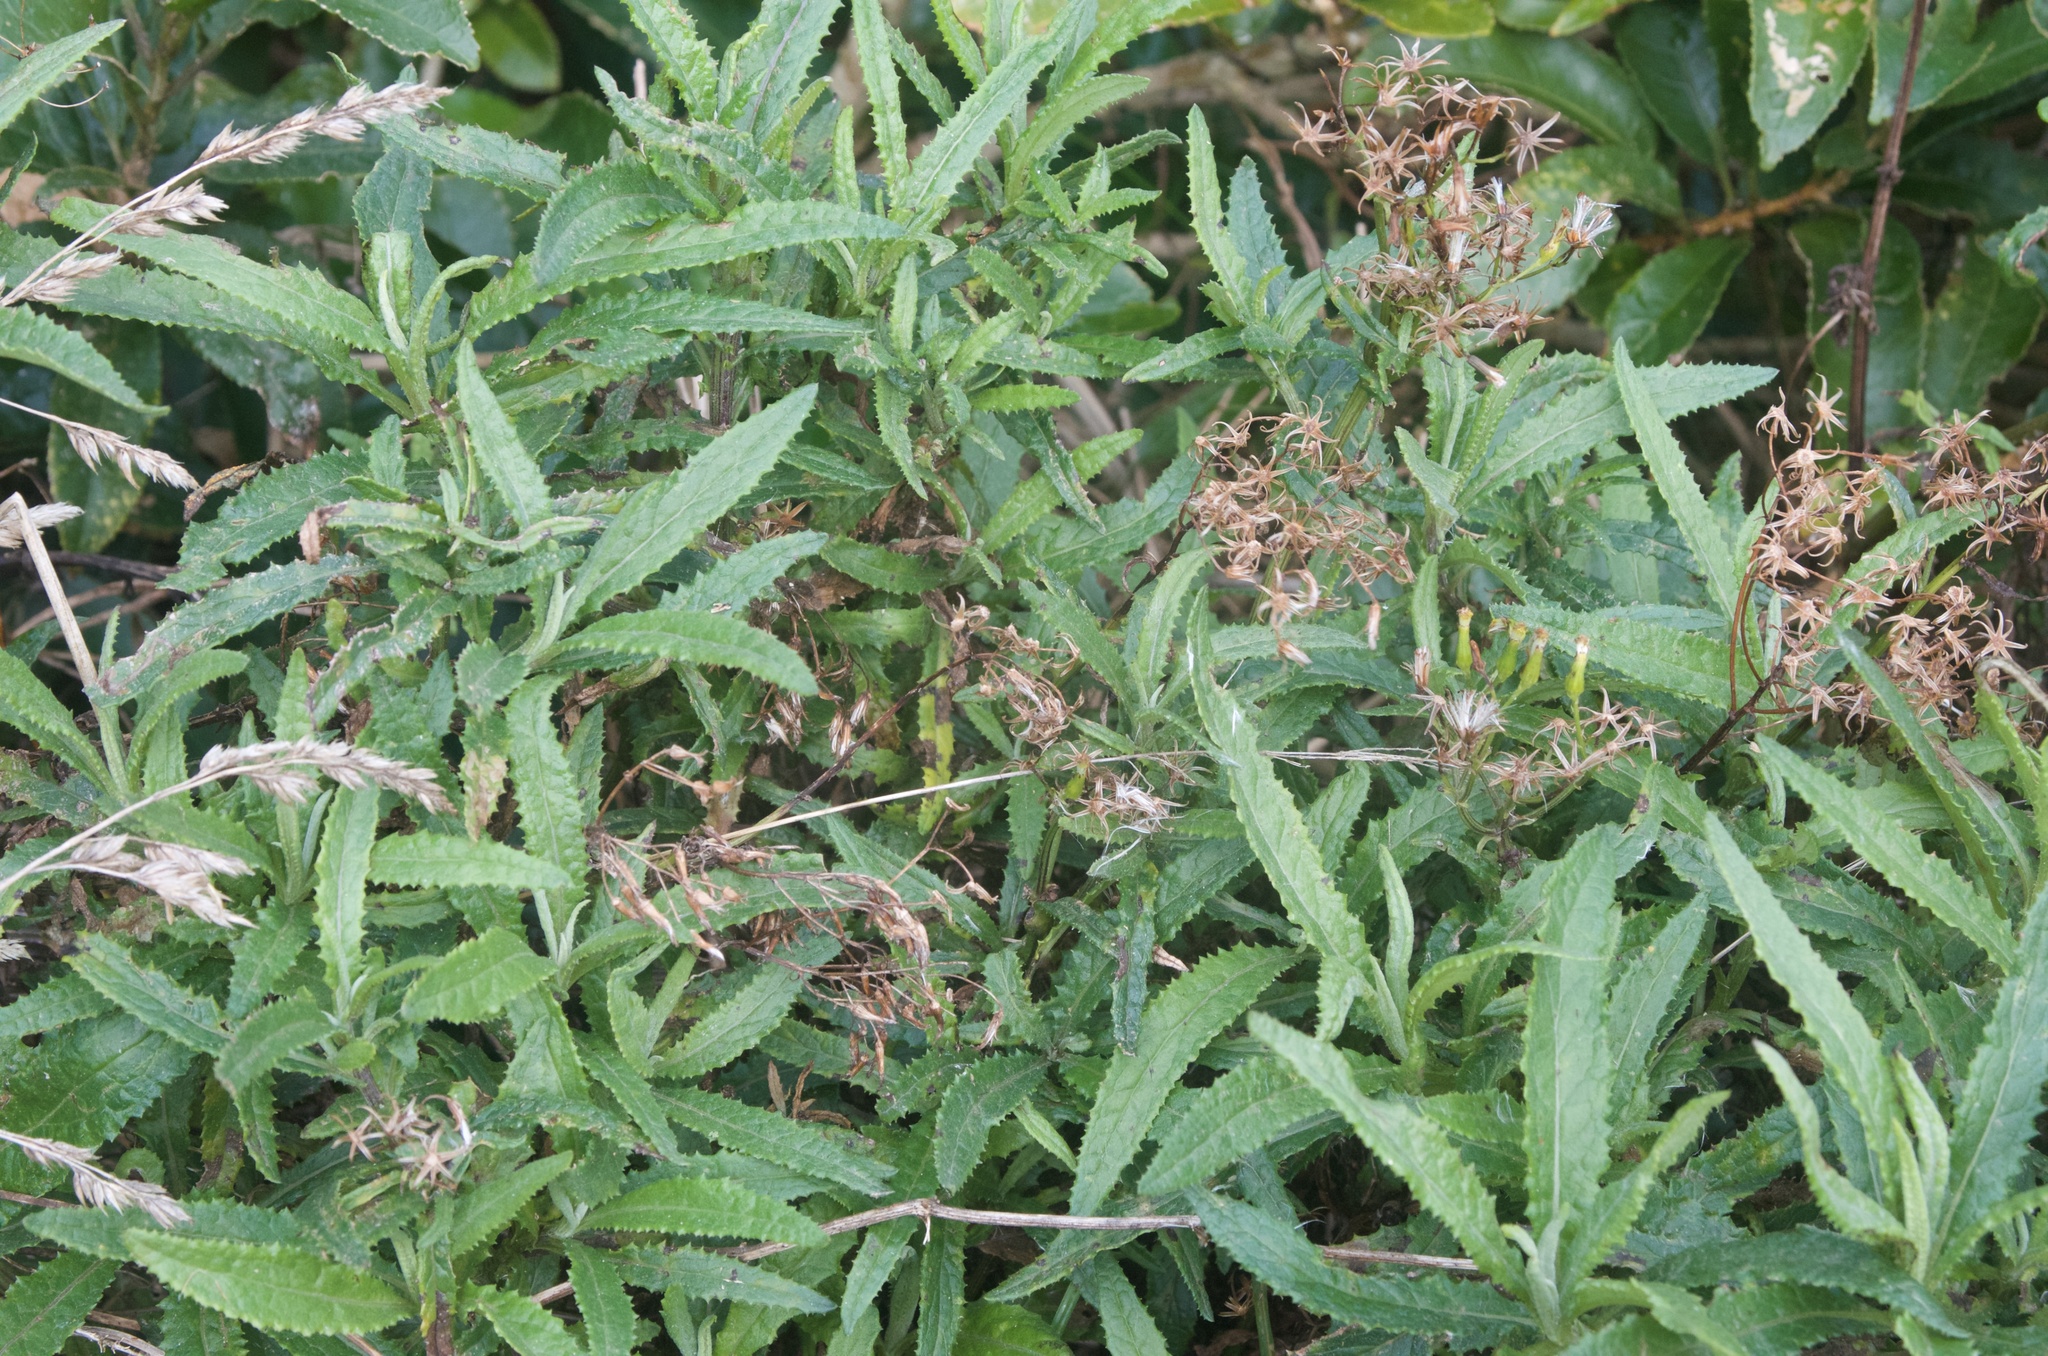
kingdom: Plantae
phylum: Tracheophyta
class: Magnoliopsida
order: Asterales
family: Asteraceae
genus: Senecio
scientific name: Senecio minimus
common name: Toothed fireweed
